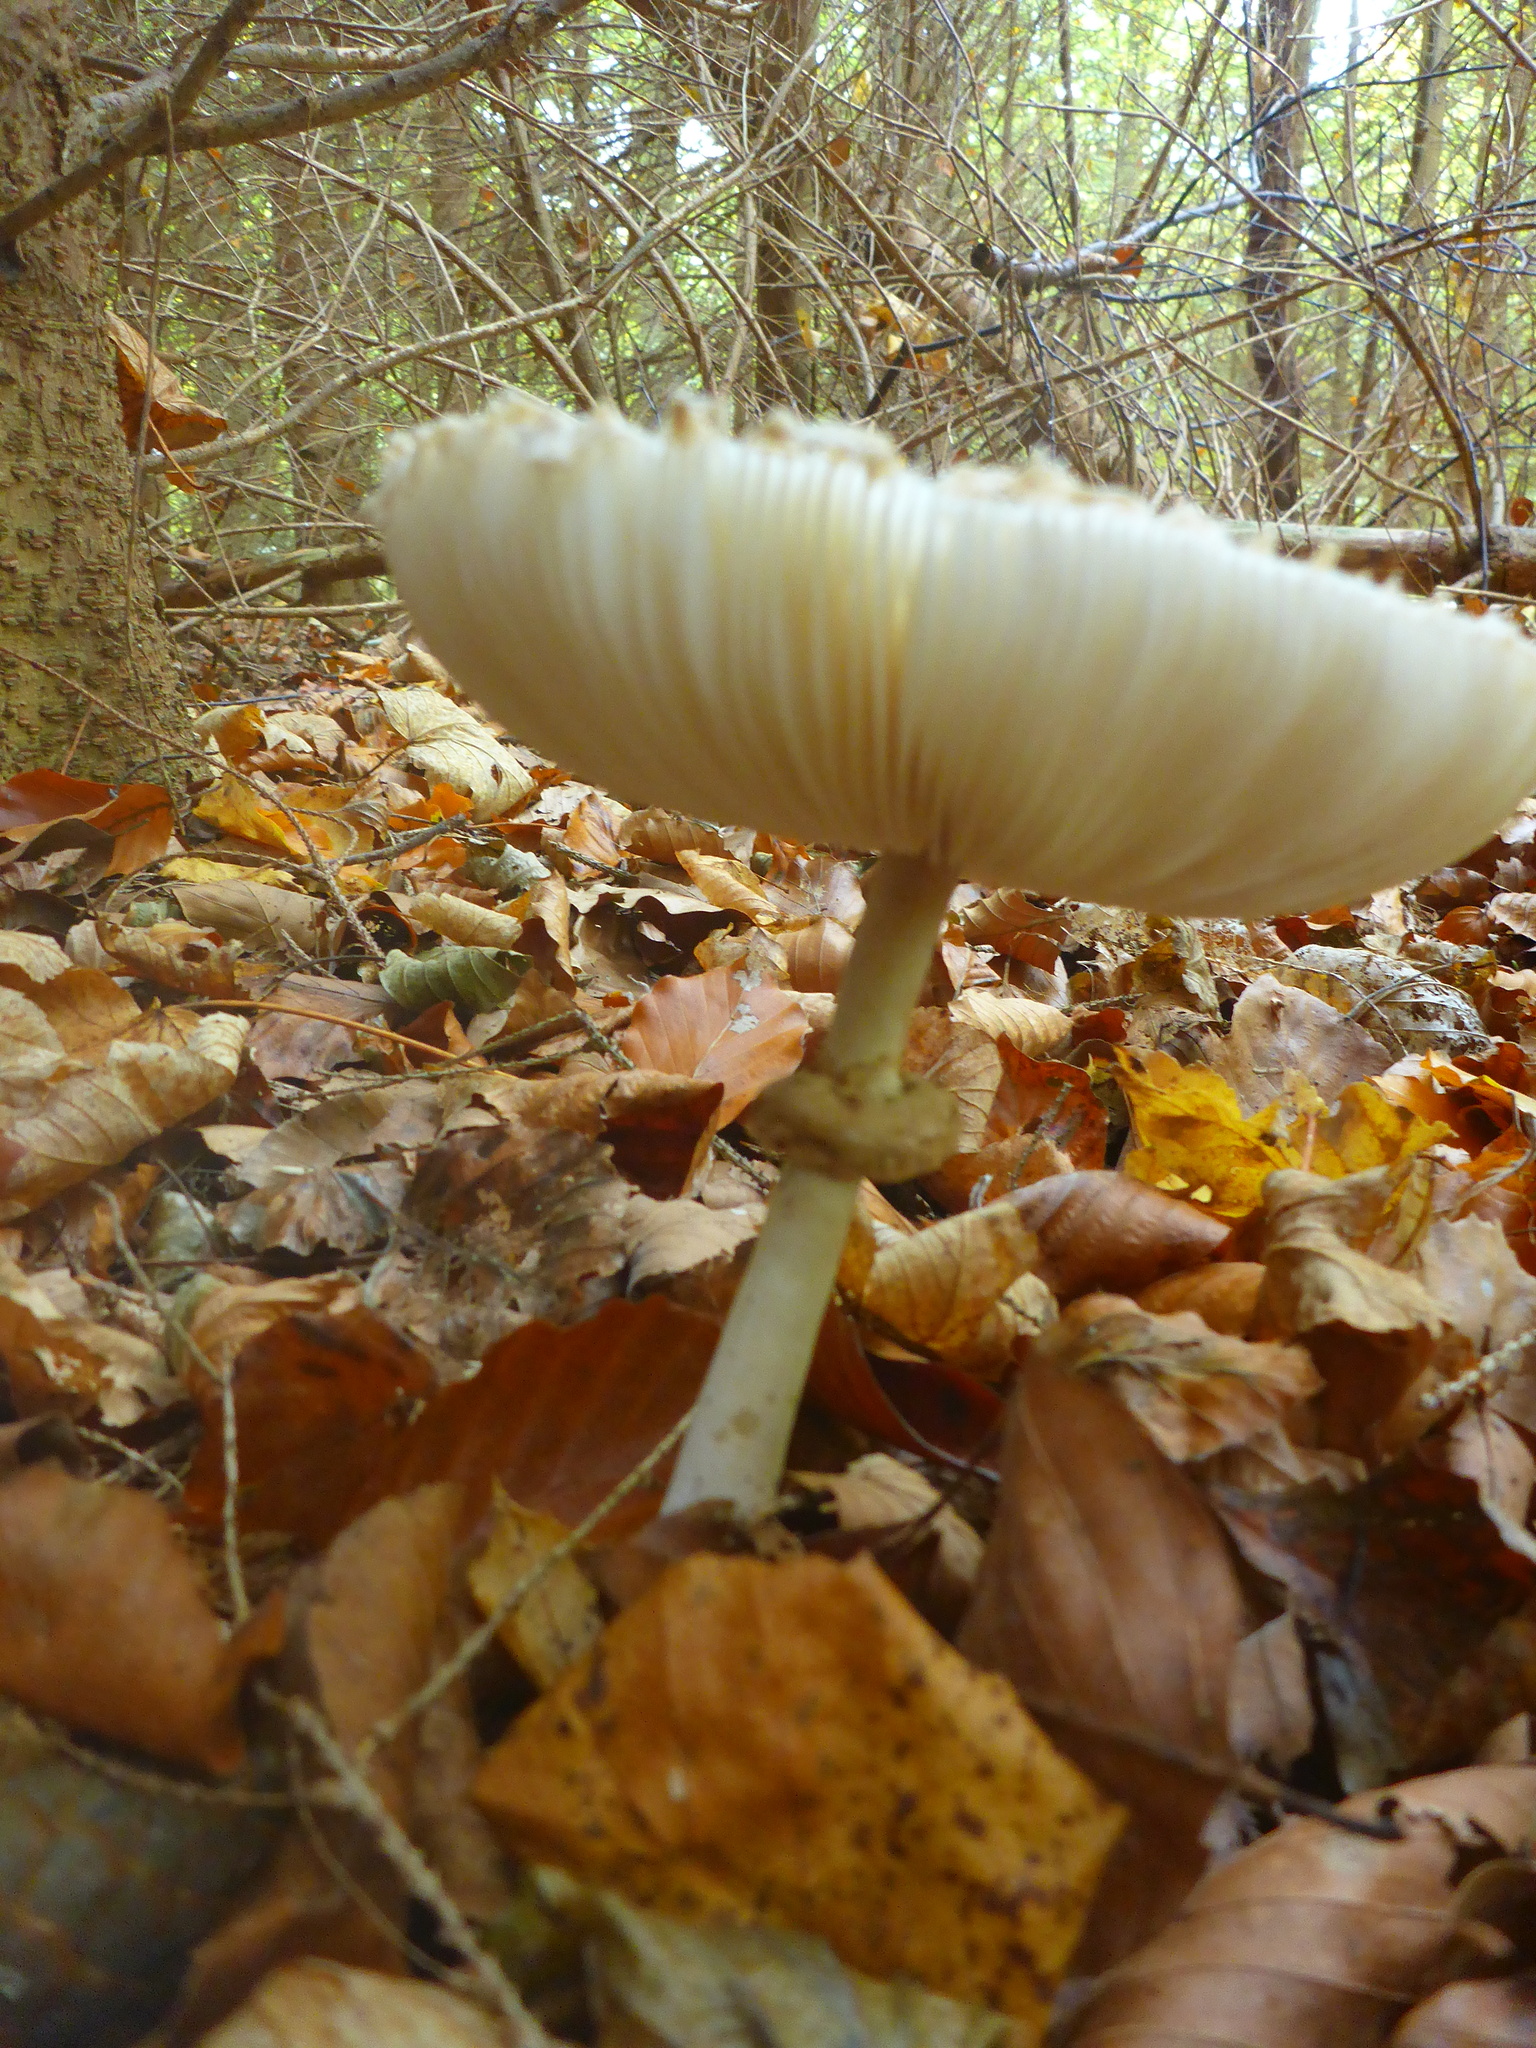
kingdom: Fungi
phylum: Basidiomycota
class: Agaricomycetes
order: Agaricales
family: Agaricaceae
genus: Leucoagaricus
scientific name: Leucoagaricus nympharum
